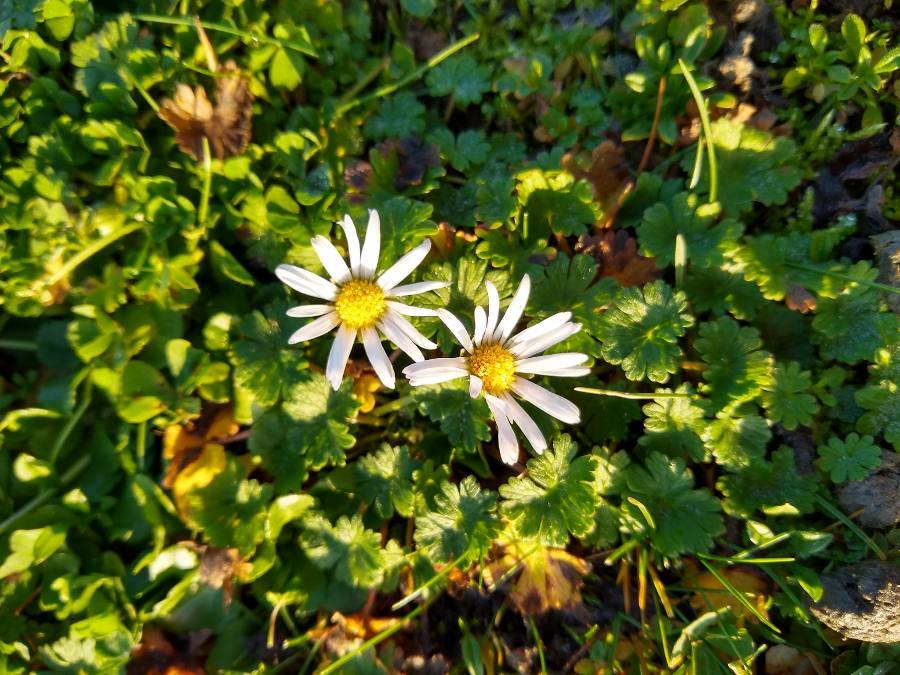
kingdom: Plantae
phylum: Tracheophyta
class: Magnoliopsida
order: Asterales
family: Asteraceae
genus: Bellis
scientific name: Bellis perennis
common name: Lawndaisy
